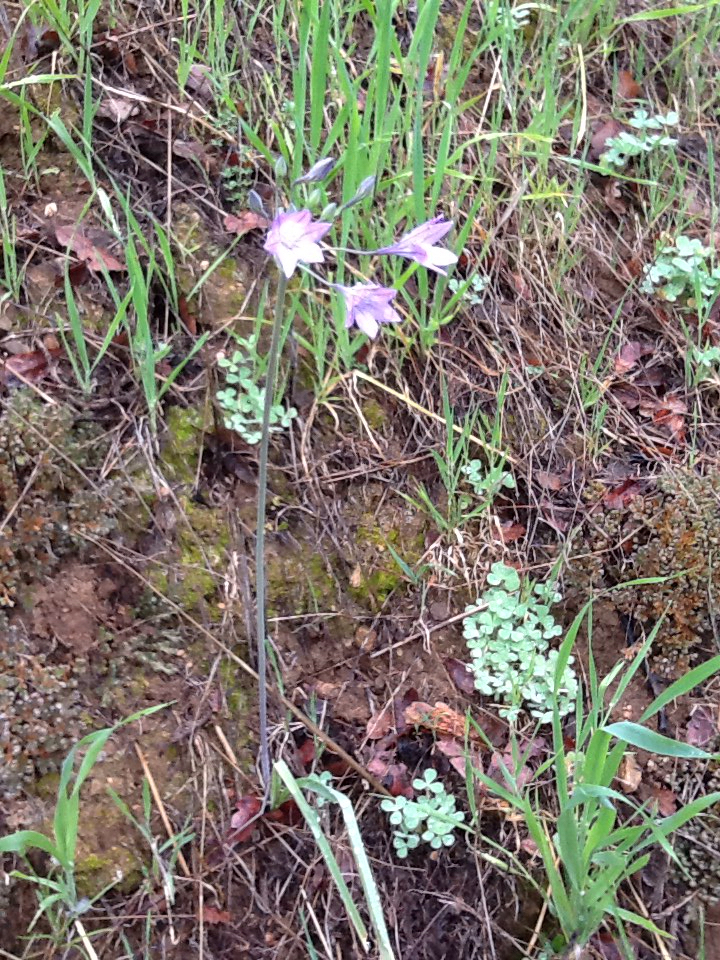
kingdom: Plantae
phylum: Tracheophyta
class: Liliopsida
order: Asparagales
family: Asparagaceae
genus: Triteleia
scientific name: Triteleia laxa
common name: Triplet-lily
